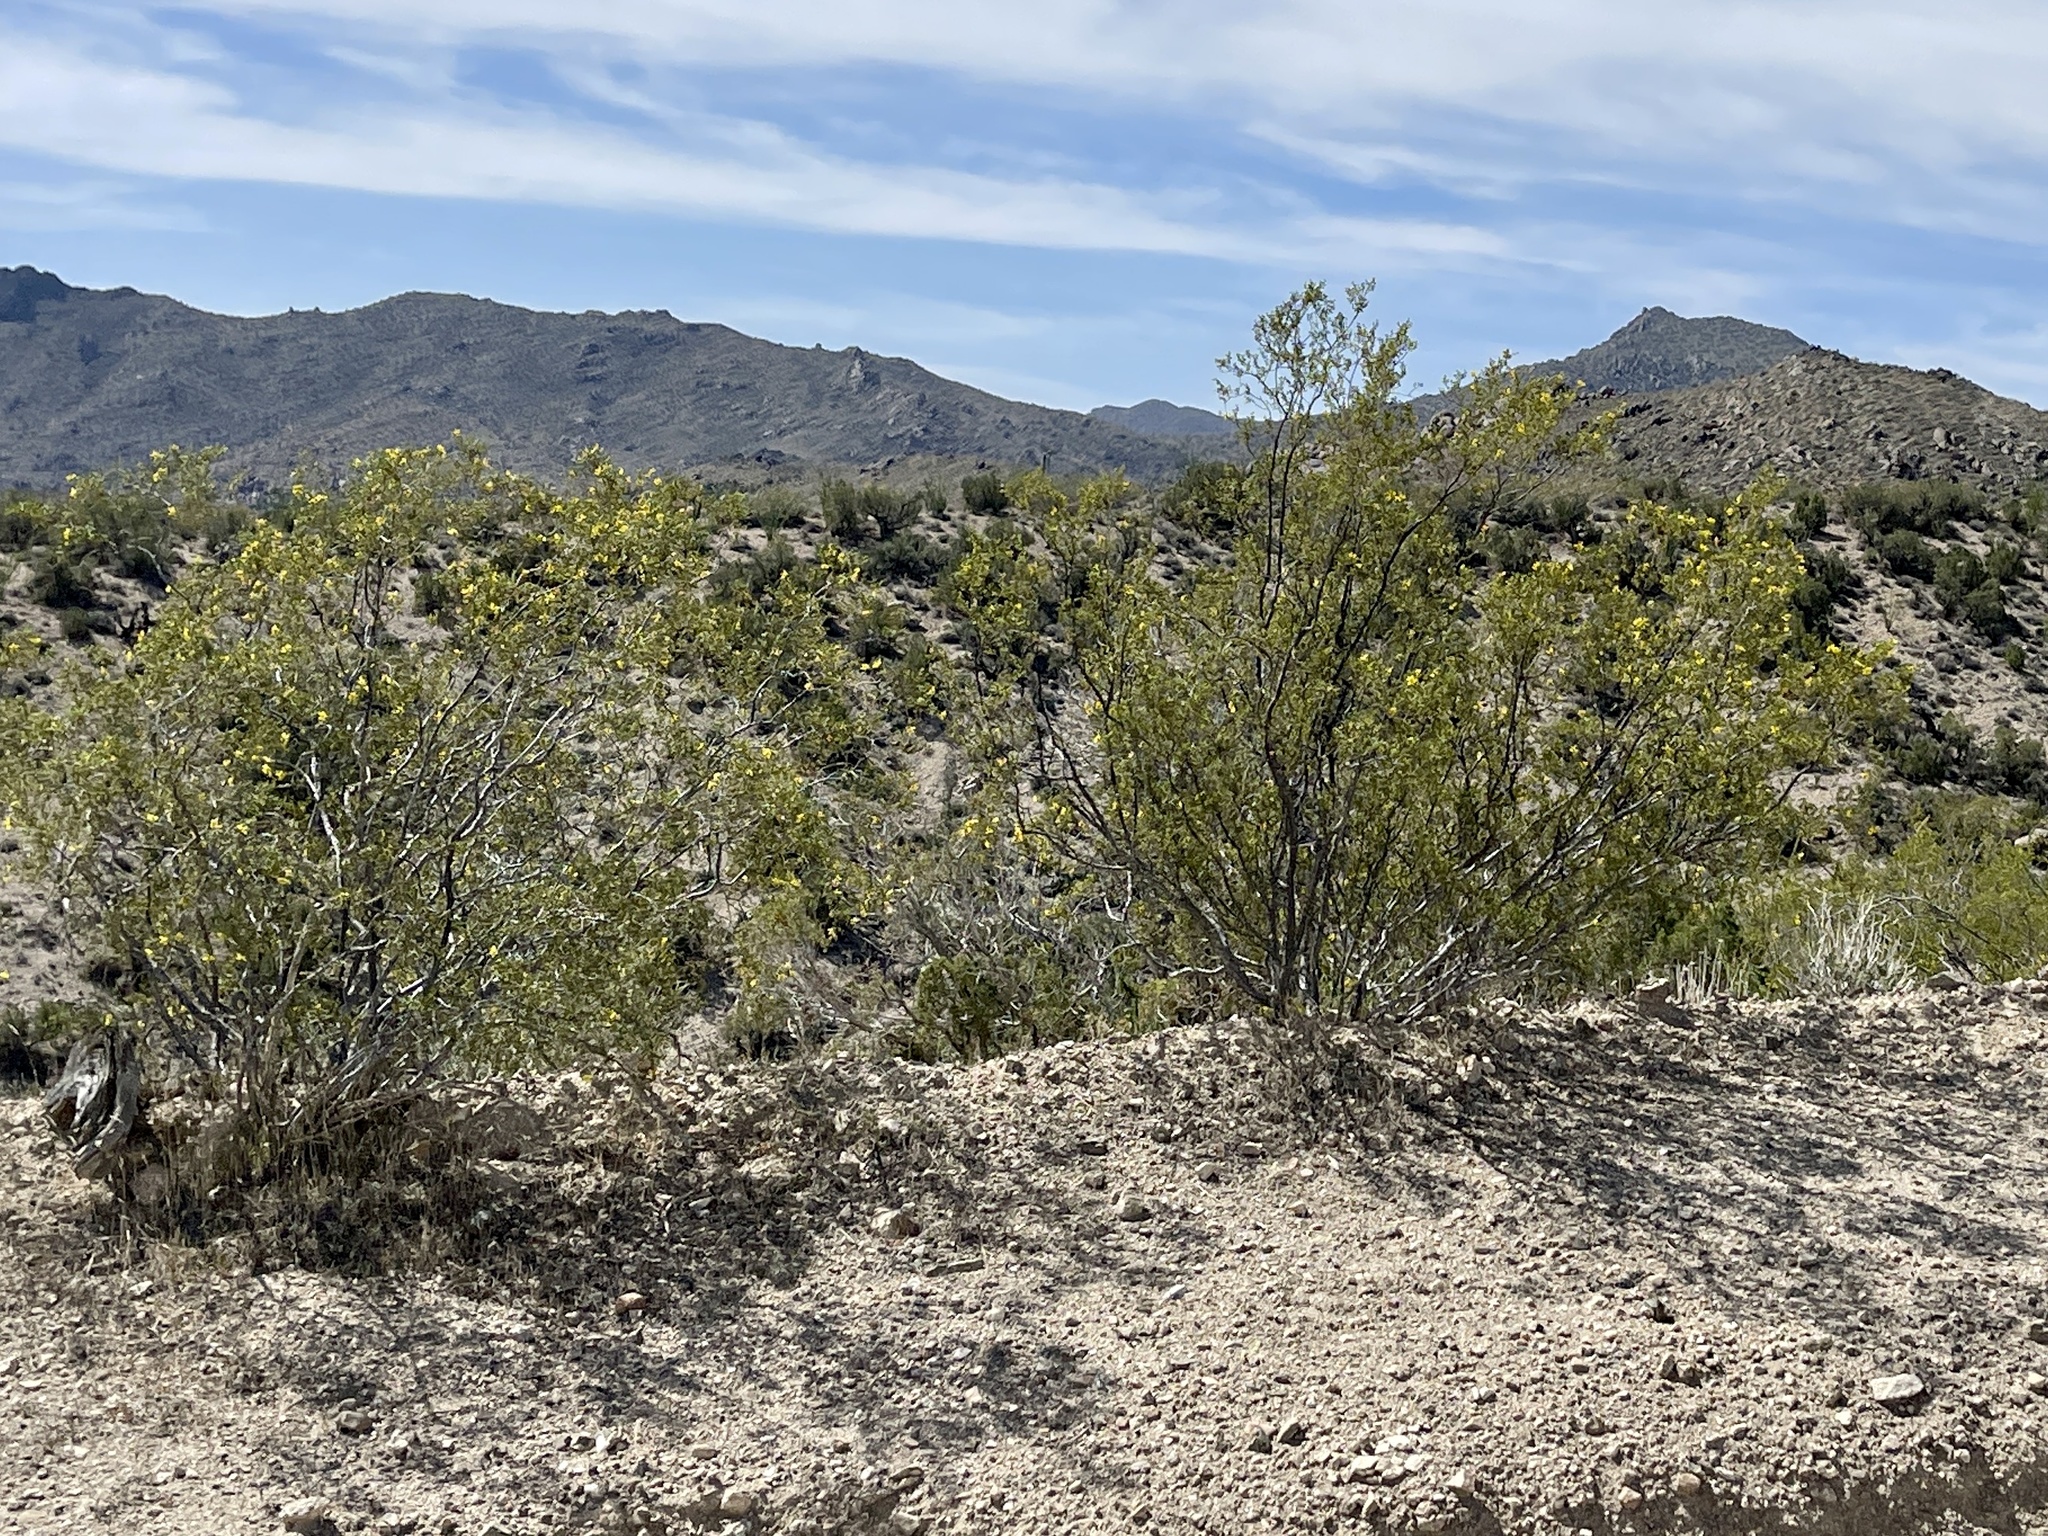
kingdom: Plantae
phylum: Tracheophyta
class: Magnoliopsida
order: Zygophyllales
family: Zygophyllaceae
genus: Larrea
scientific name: Larrea tridentata
